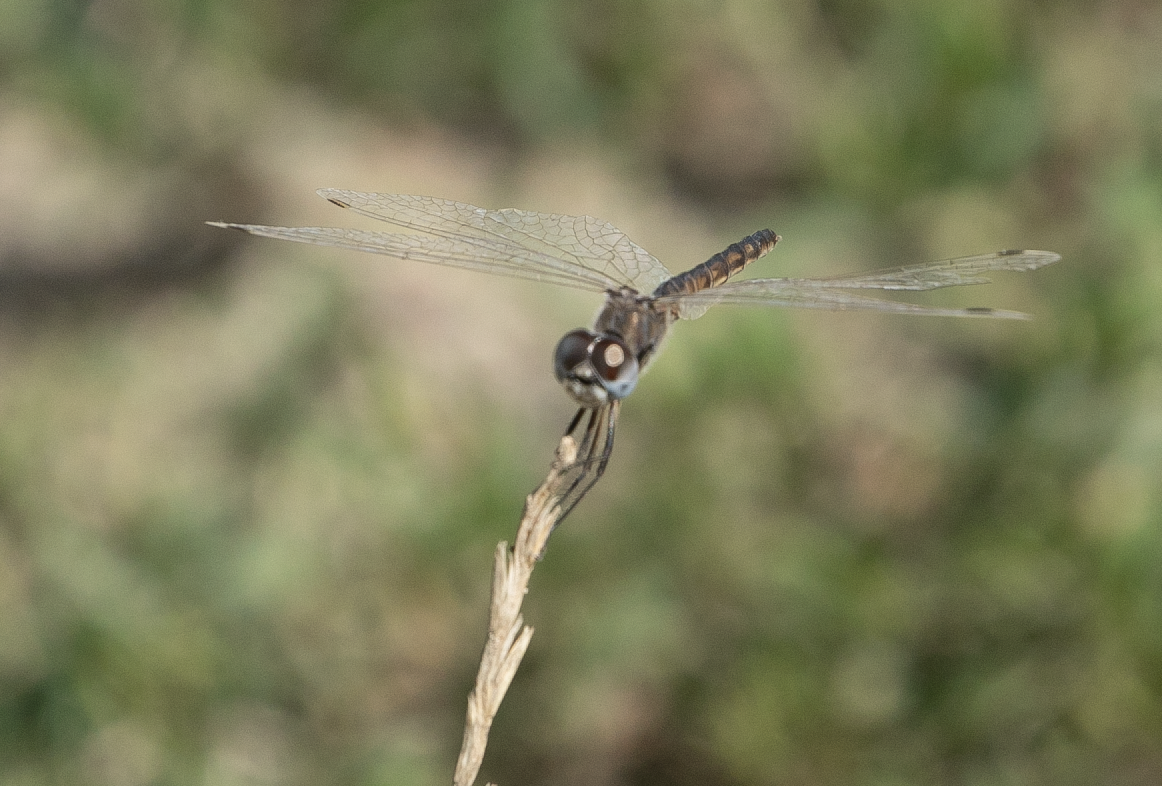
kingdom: Animalia
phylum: Arthropoda
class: Insecta
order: Odonata
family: Libellulidae
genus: Selysiothemis
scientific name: Selysiothemis nigra
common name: Black pennant
